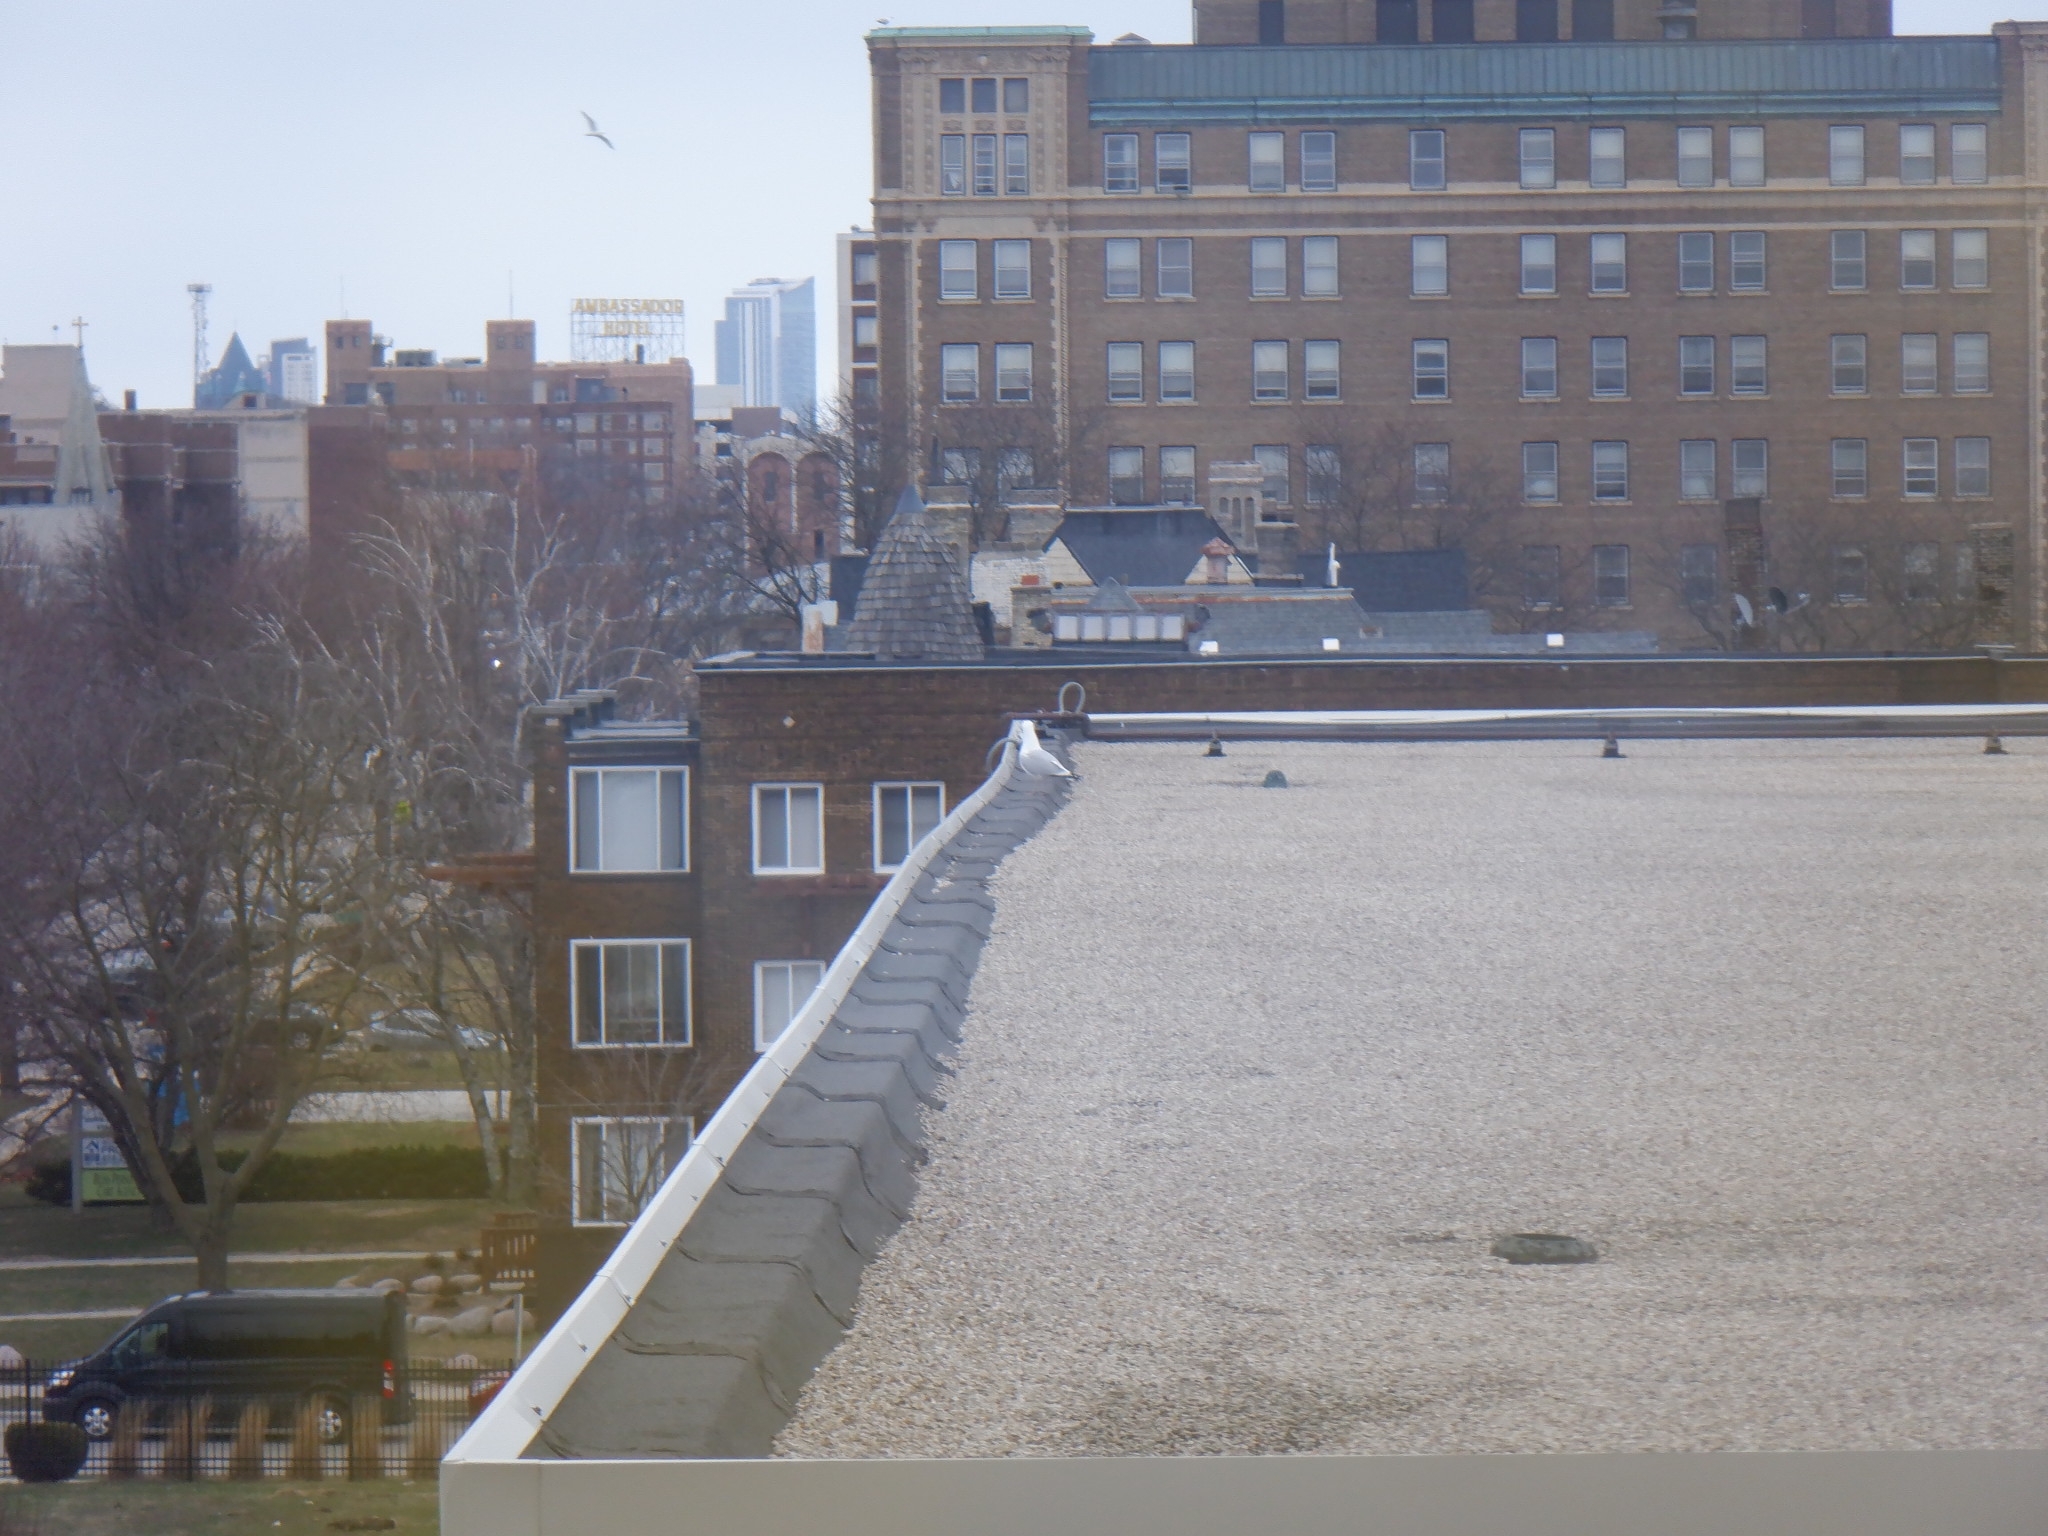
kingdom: Animalia
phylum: Chordata
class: Aves
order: Charadriiformes
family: Laridae
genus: Larus
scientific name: Larus argentatus
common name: Herring gull
